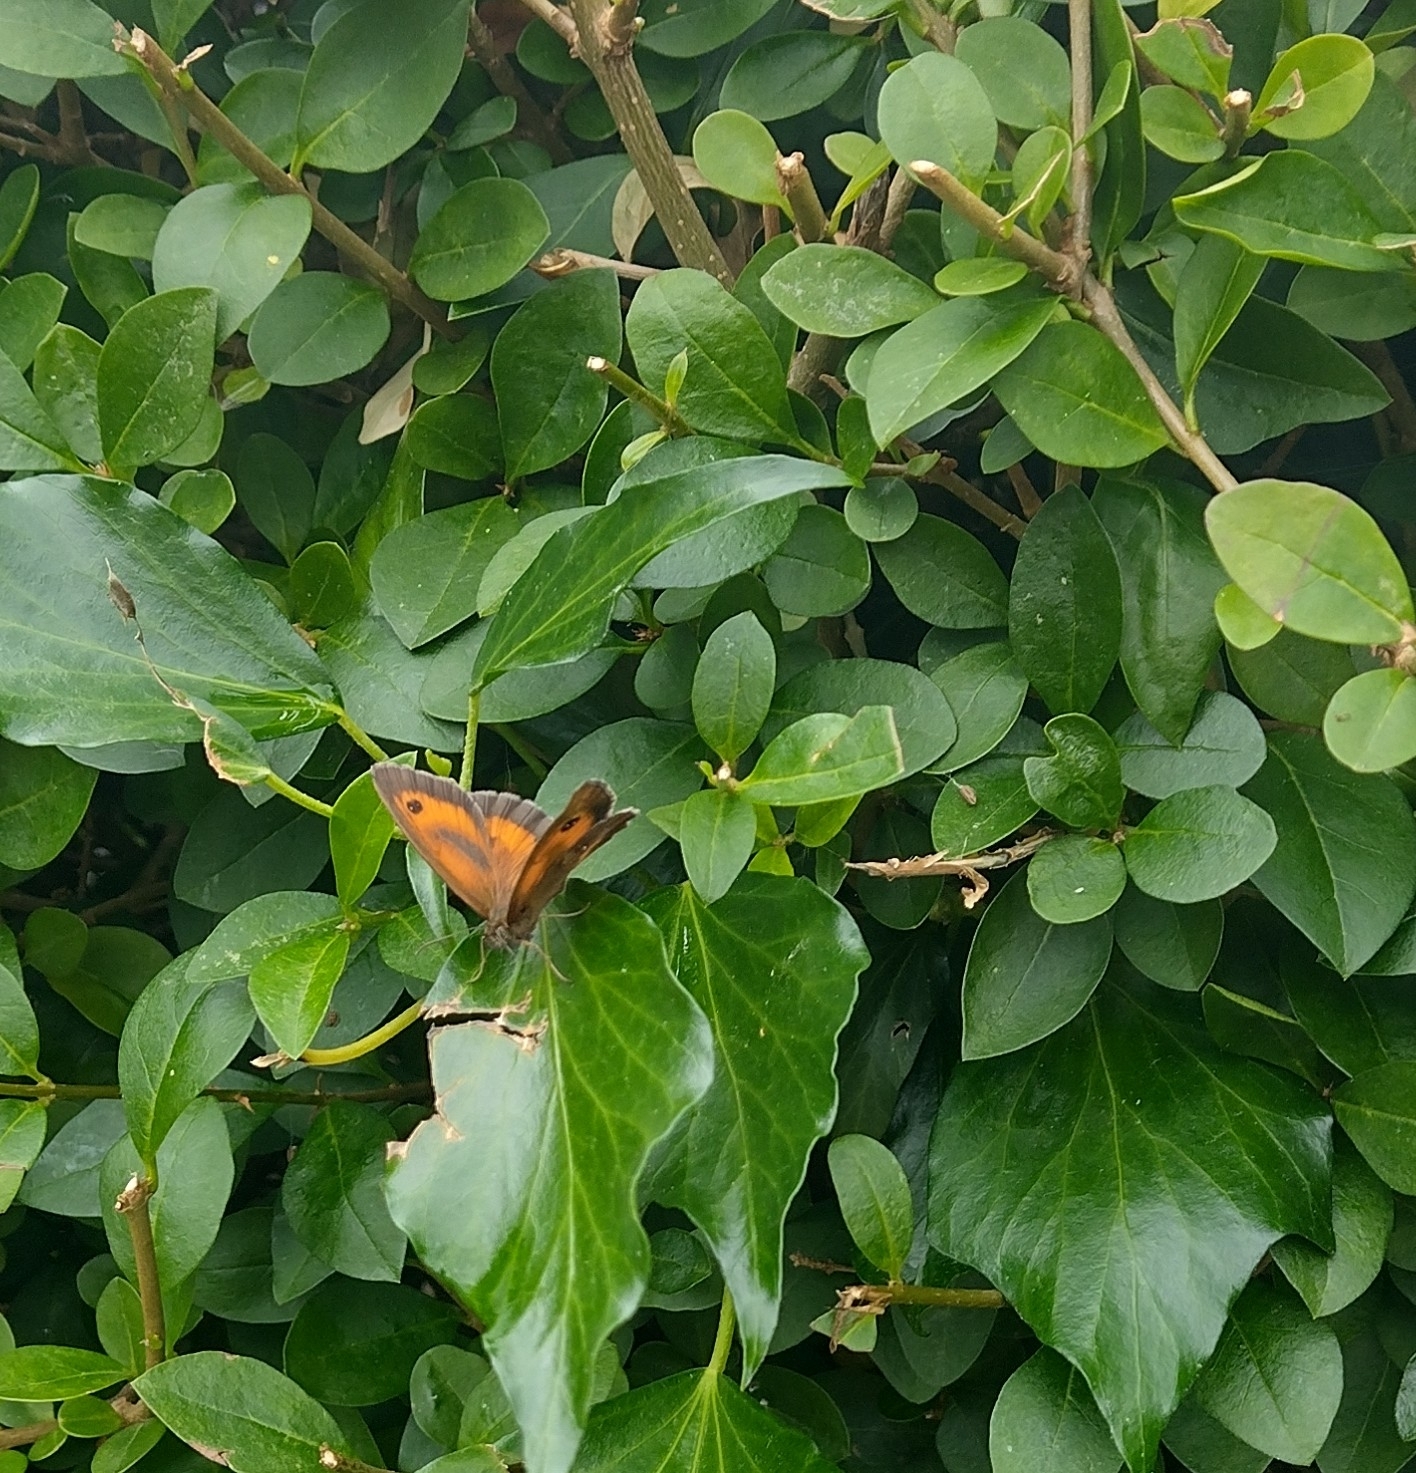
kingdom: Animalia
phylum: Arthropoda
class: Insecta
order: Lepidoptera
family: Nymphalidae
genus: Pyronia
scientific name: Pyronia tithonus
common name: Gatekeeper
